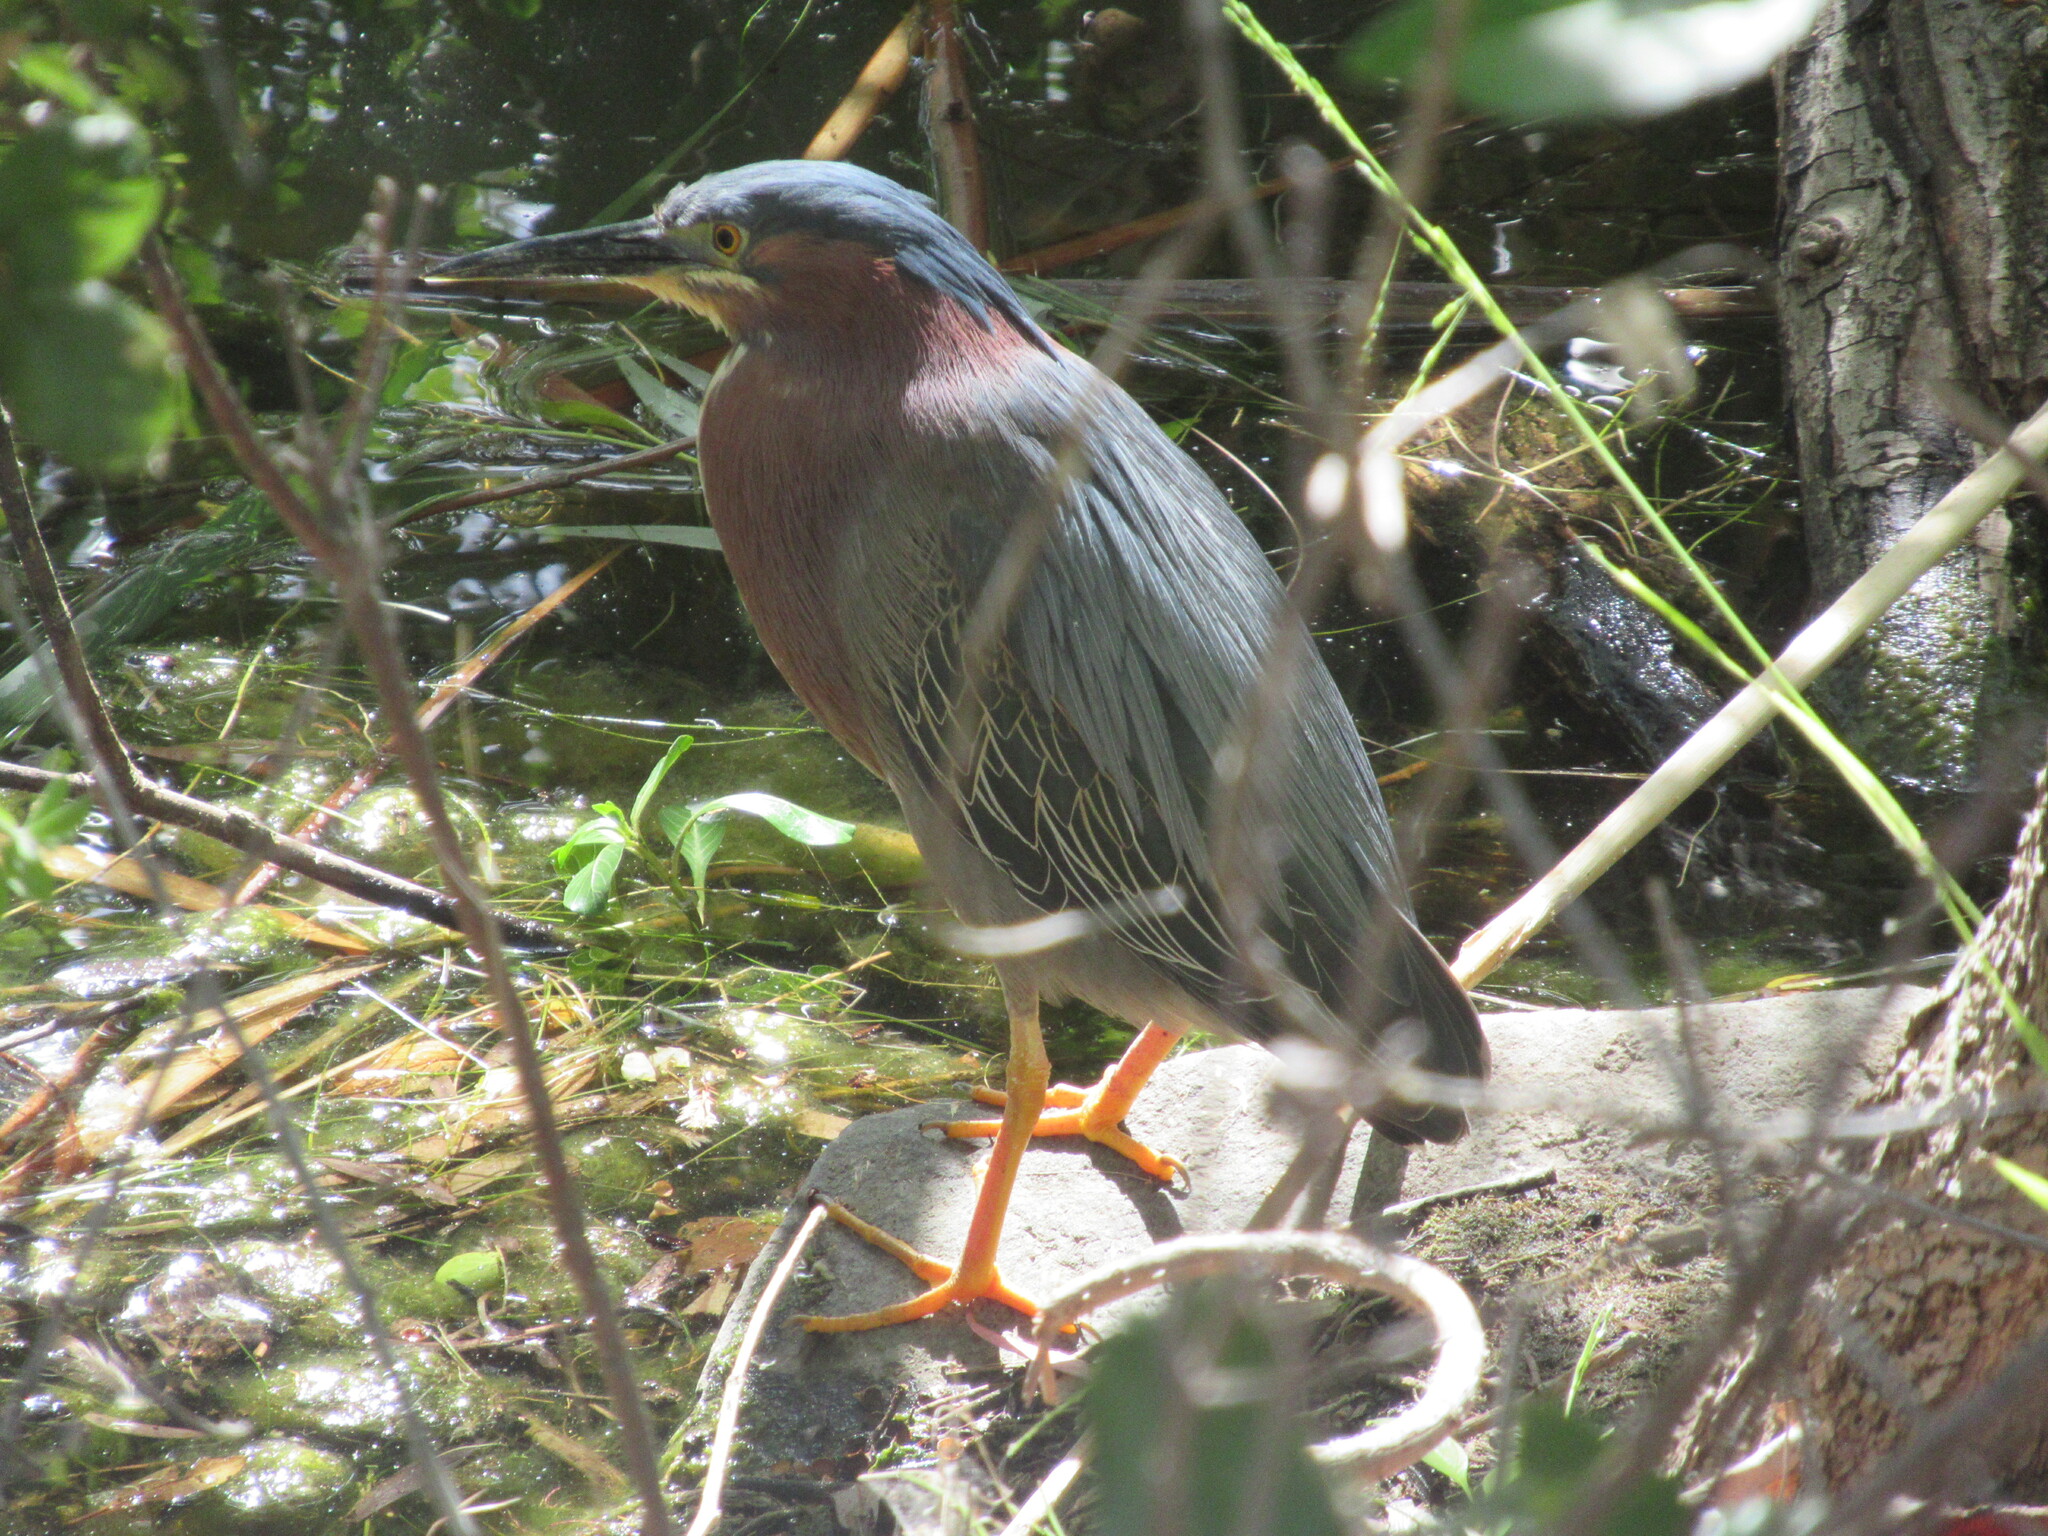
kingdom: Animalia
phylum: Chordata
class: Aves
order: Pelecaniformes
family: Ardeidae
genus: Butorides
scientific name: Butorides virescens
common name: Green heron
